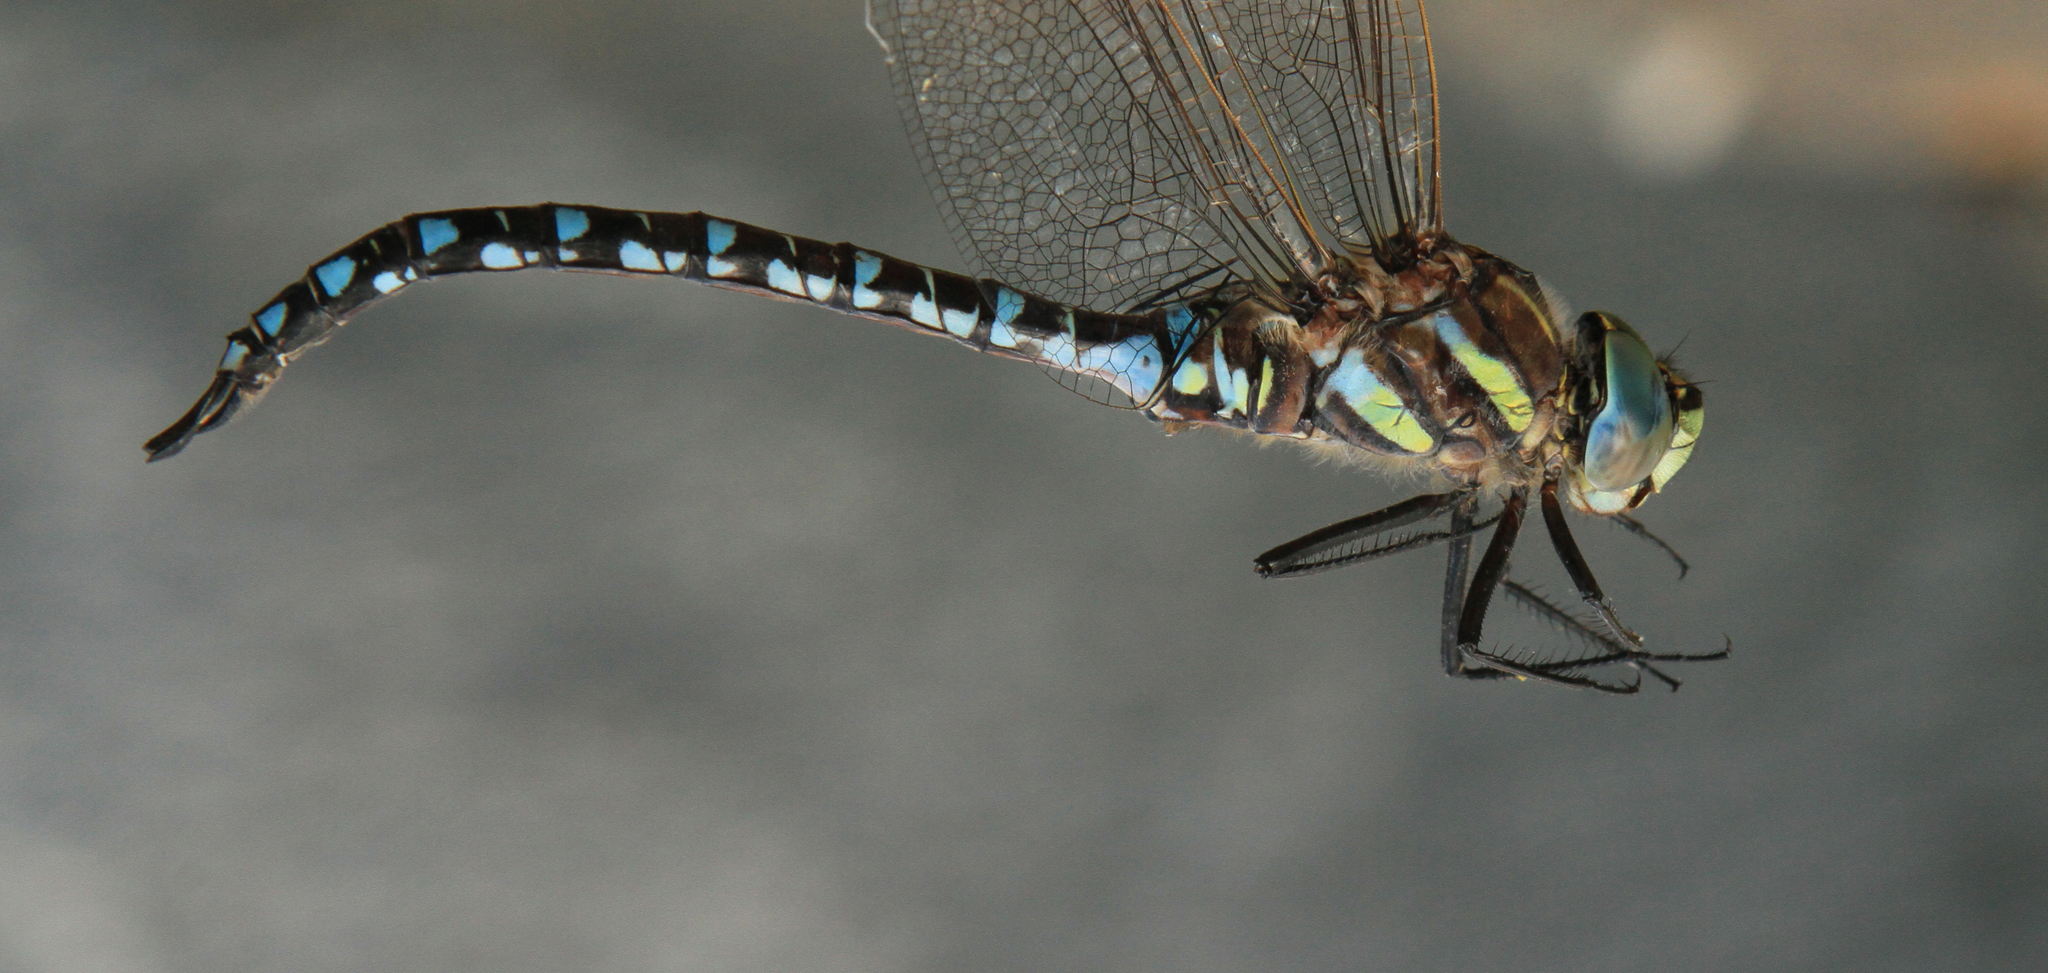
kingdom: Animalia
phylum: Arthropoda
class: Insecta
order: Odonata
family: Aeshnidae
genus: Aeshna
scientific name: Aeshna juncea
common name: Moorland hawker
